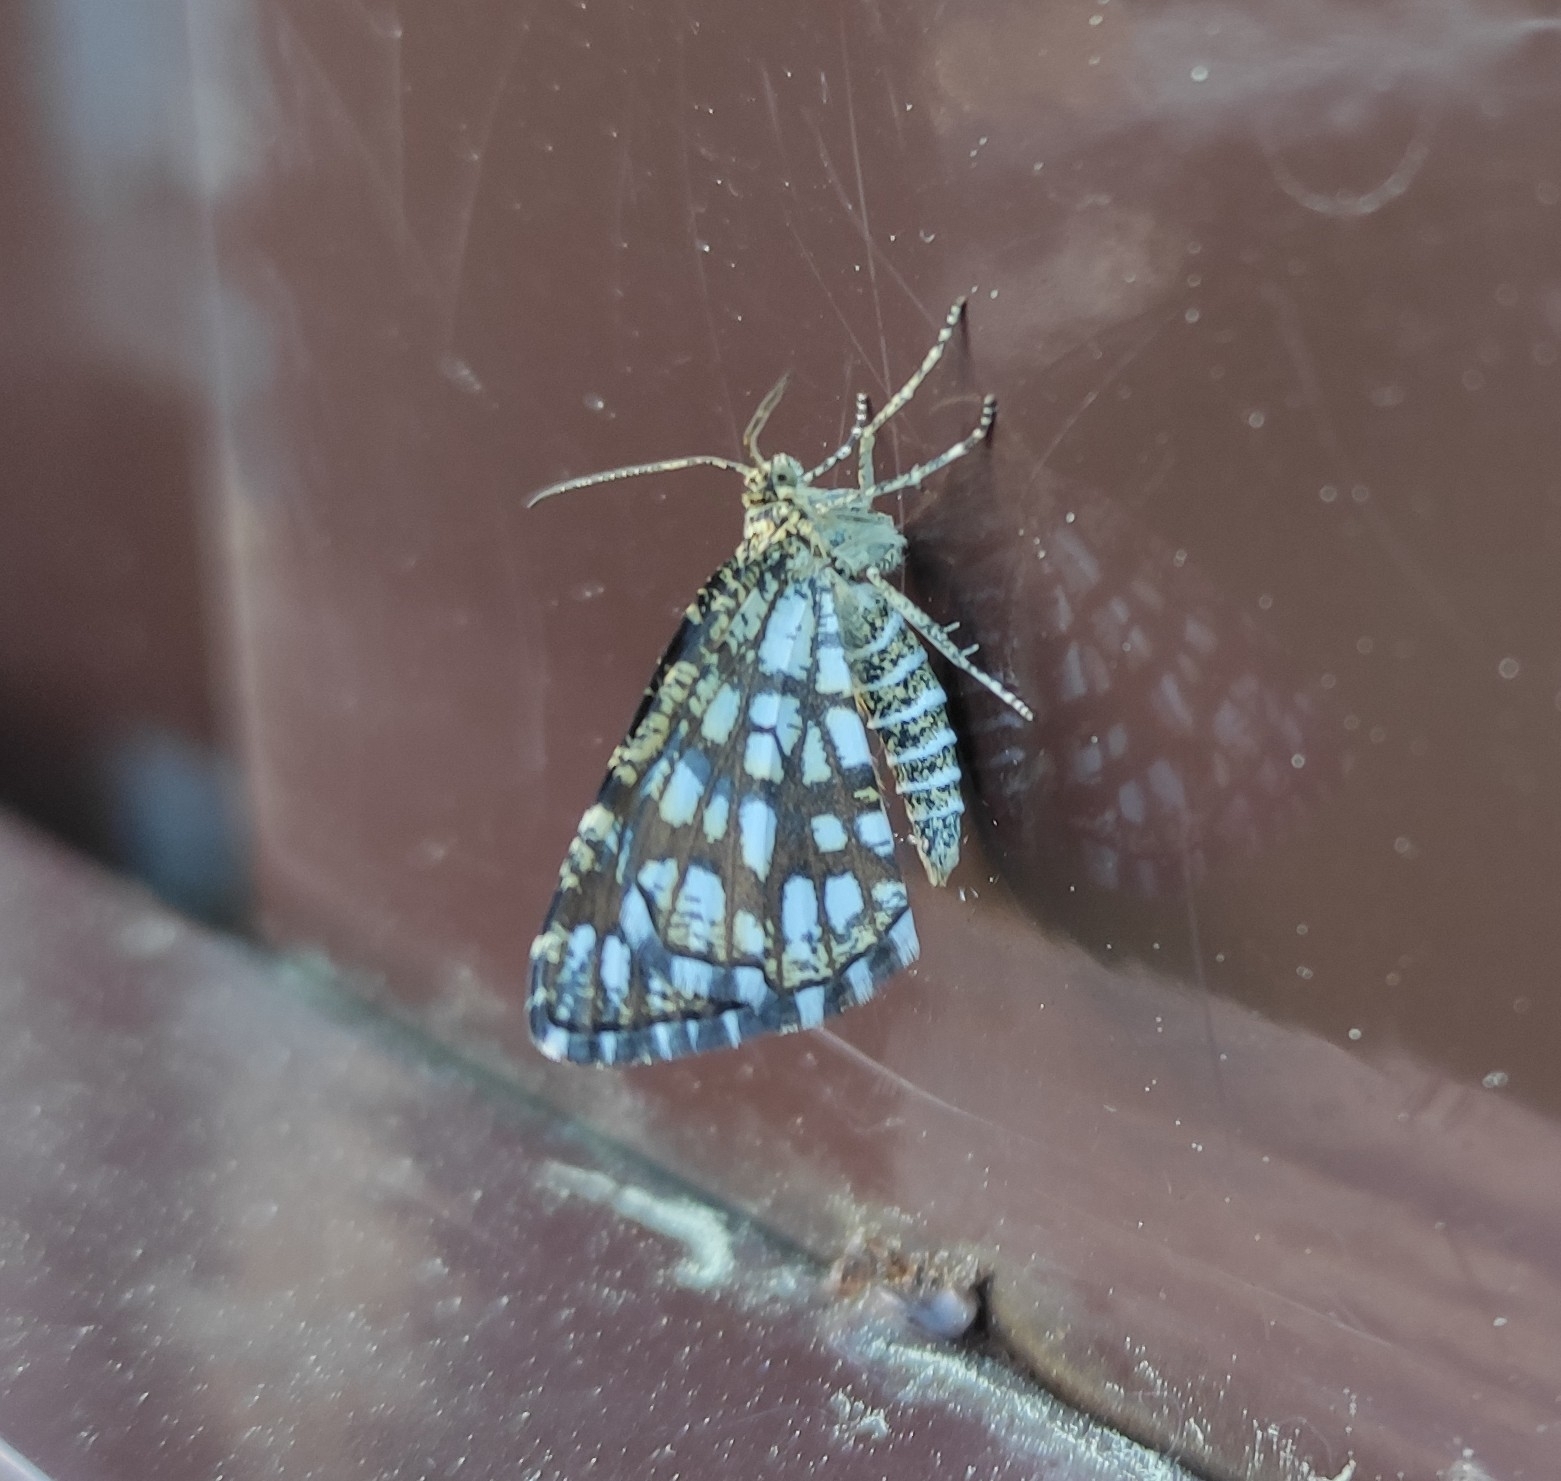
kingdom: Animalia
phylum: Arthropoda
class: Insecta
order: Lepidoptera
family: Geometridae
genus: Chiasmia
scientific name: Chiasmia clathrata
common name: Latticed heath
